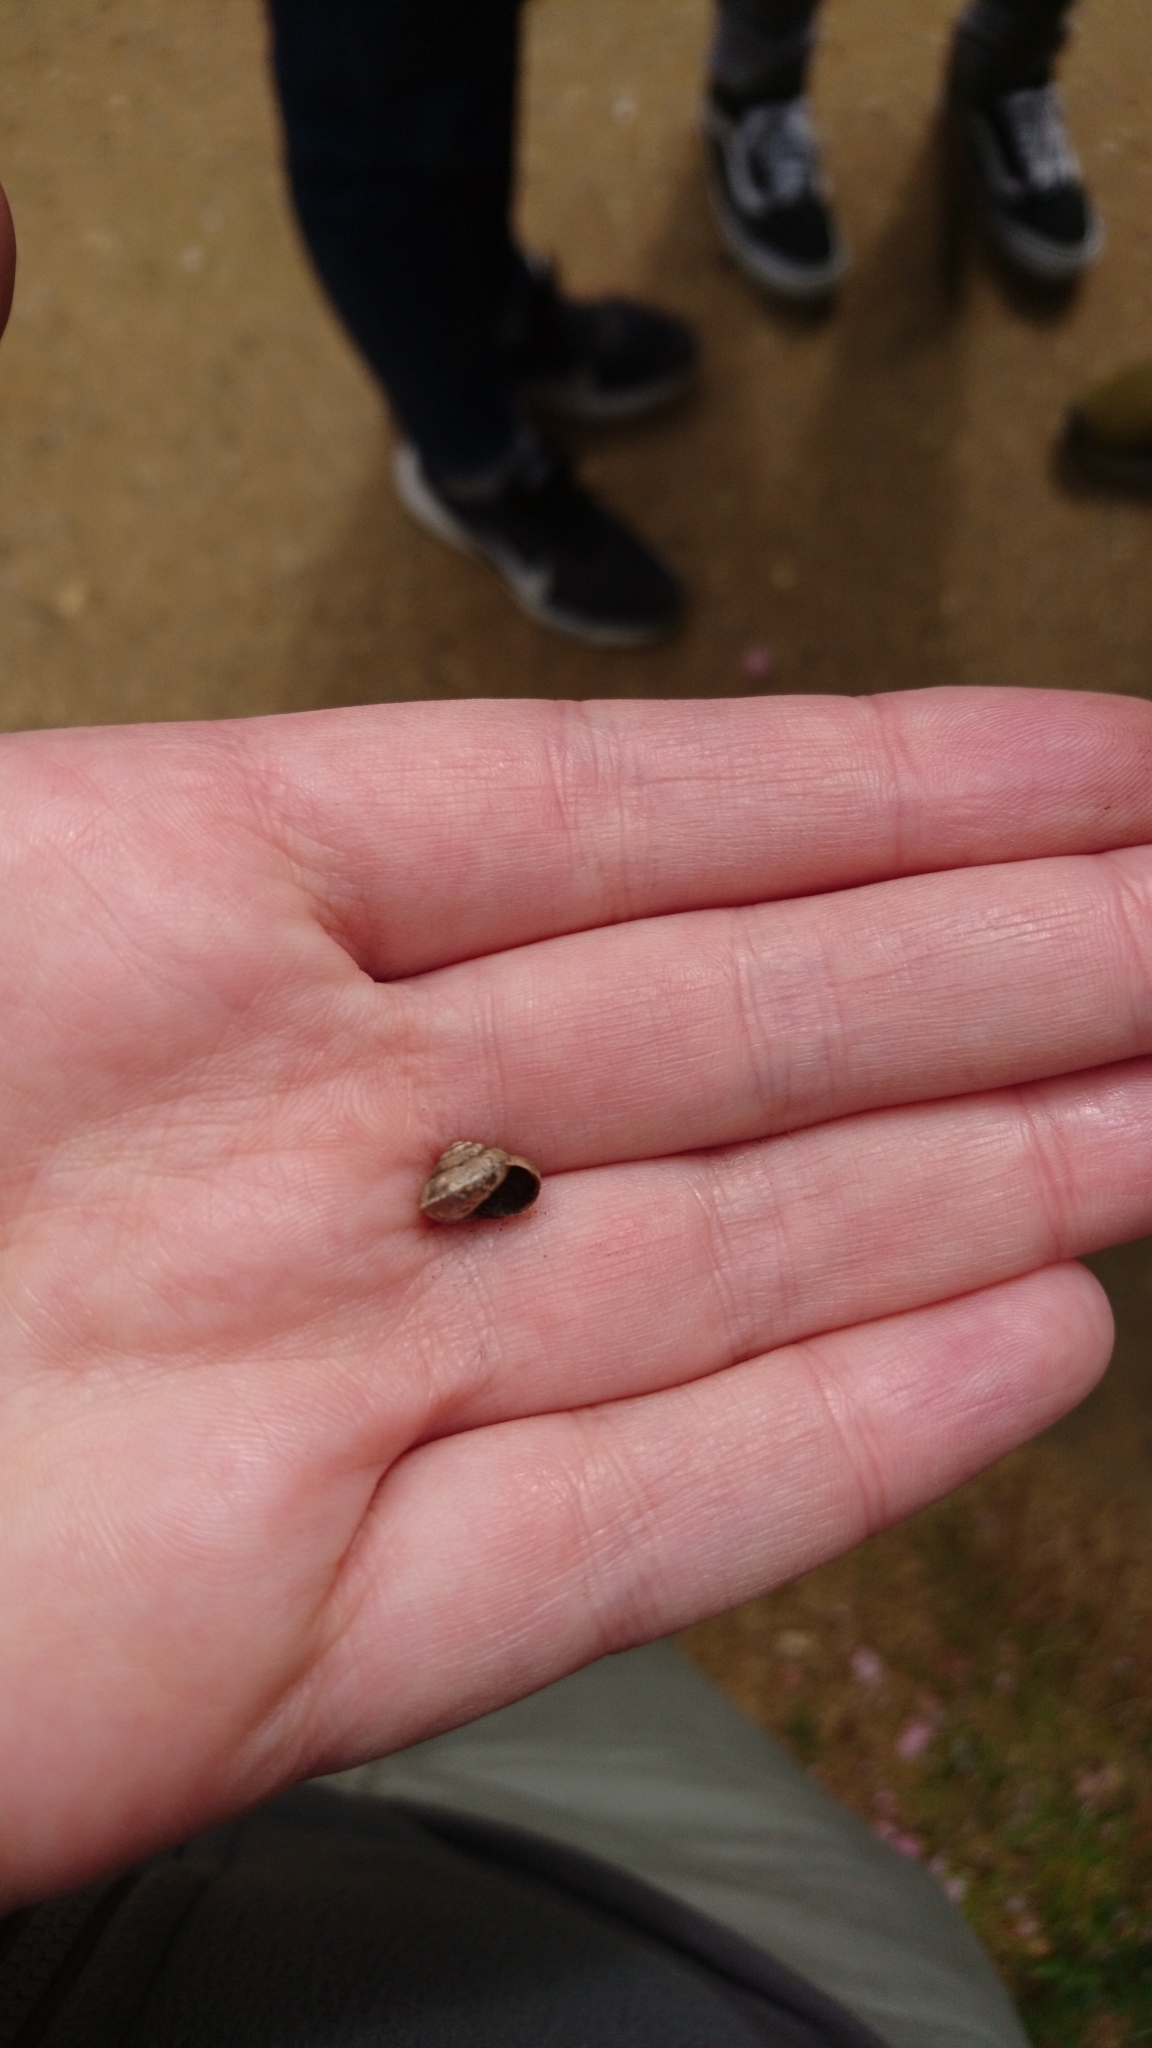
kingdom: Animalia
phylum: Mollusca
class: Gastropoda
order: Stylommatophora
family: Hygromiidae
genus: Hygromia
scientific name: Hygromia cinctella
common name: Girdled snail
